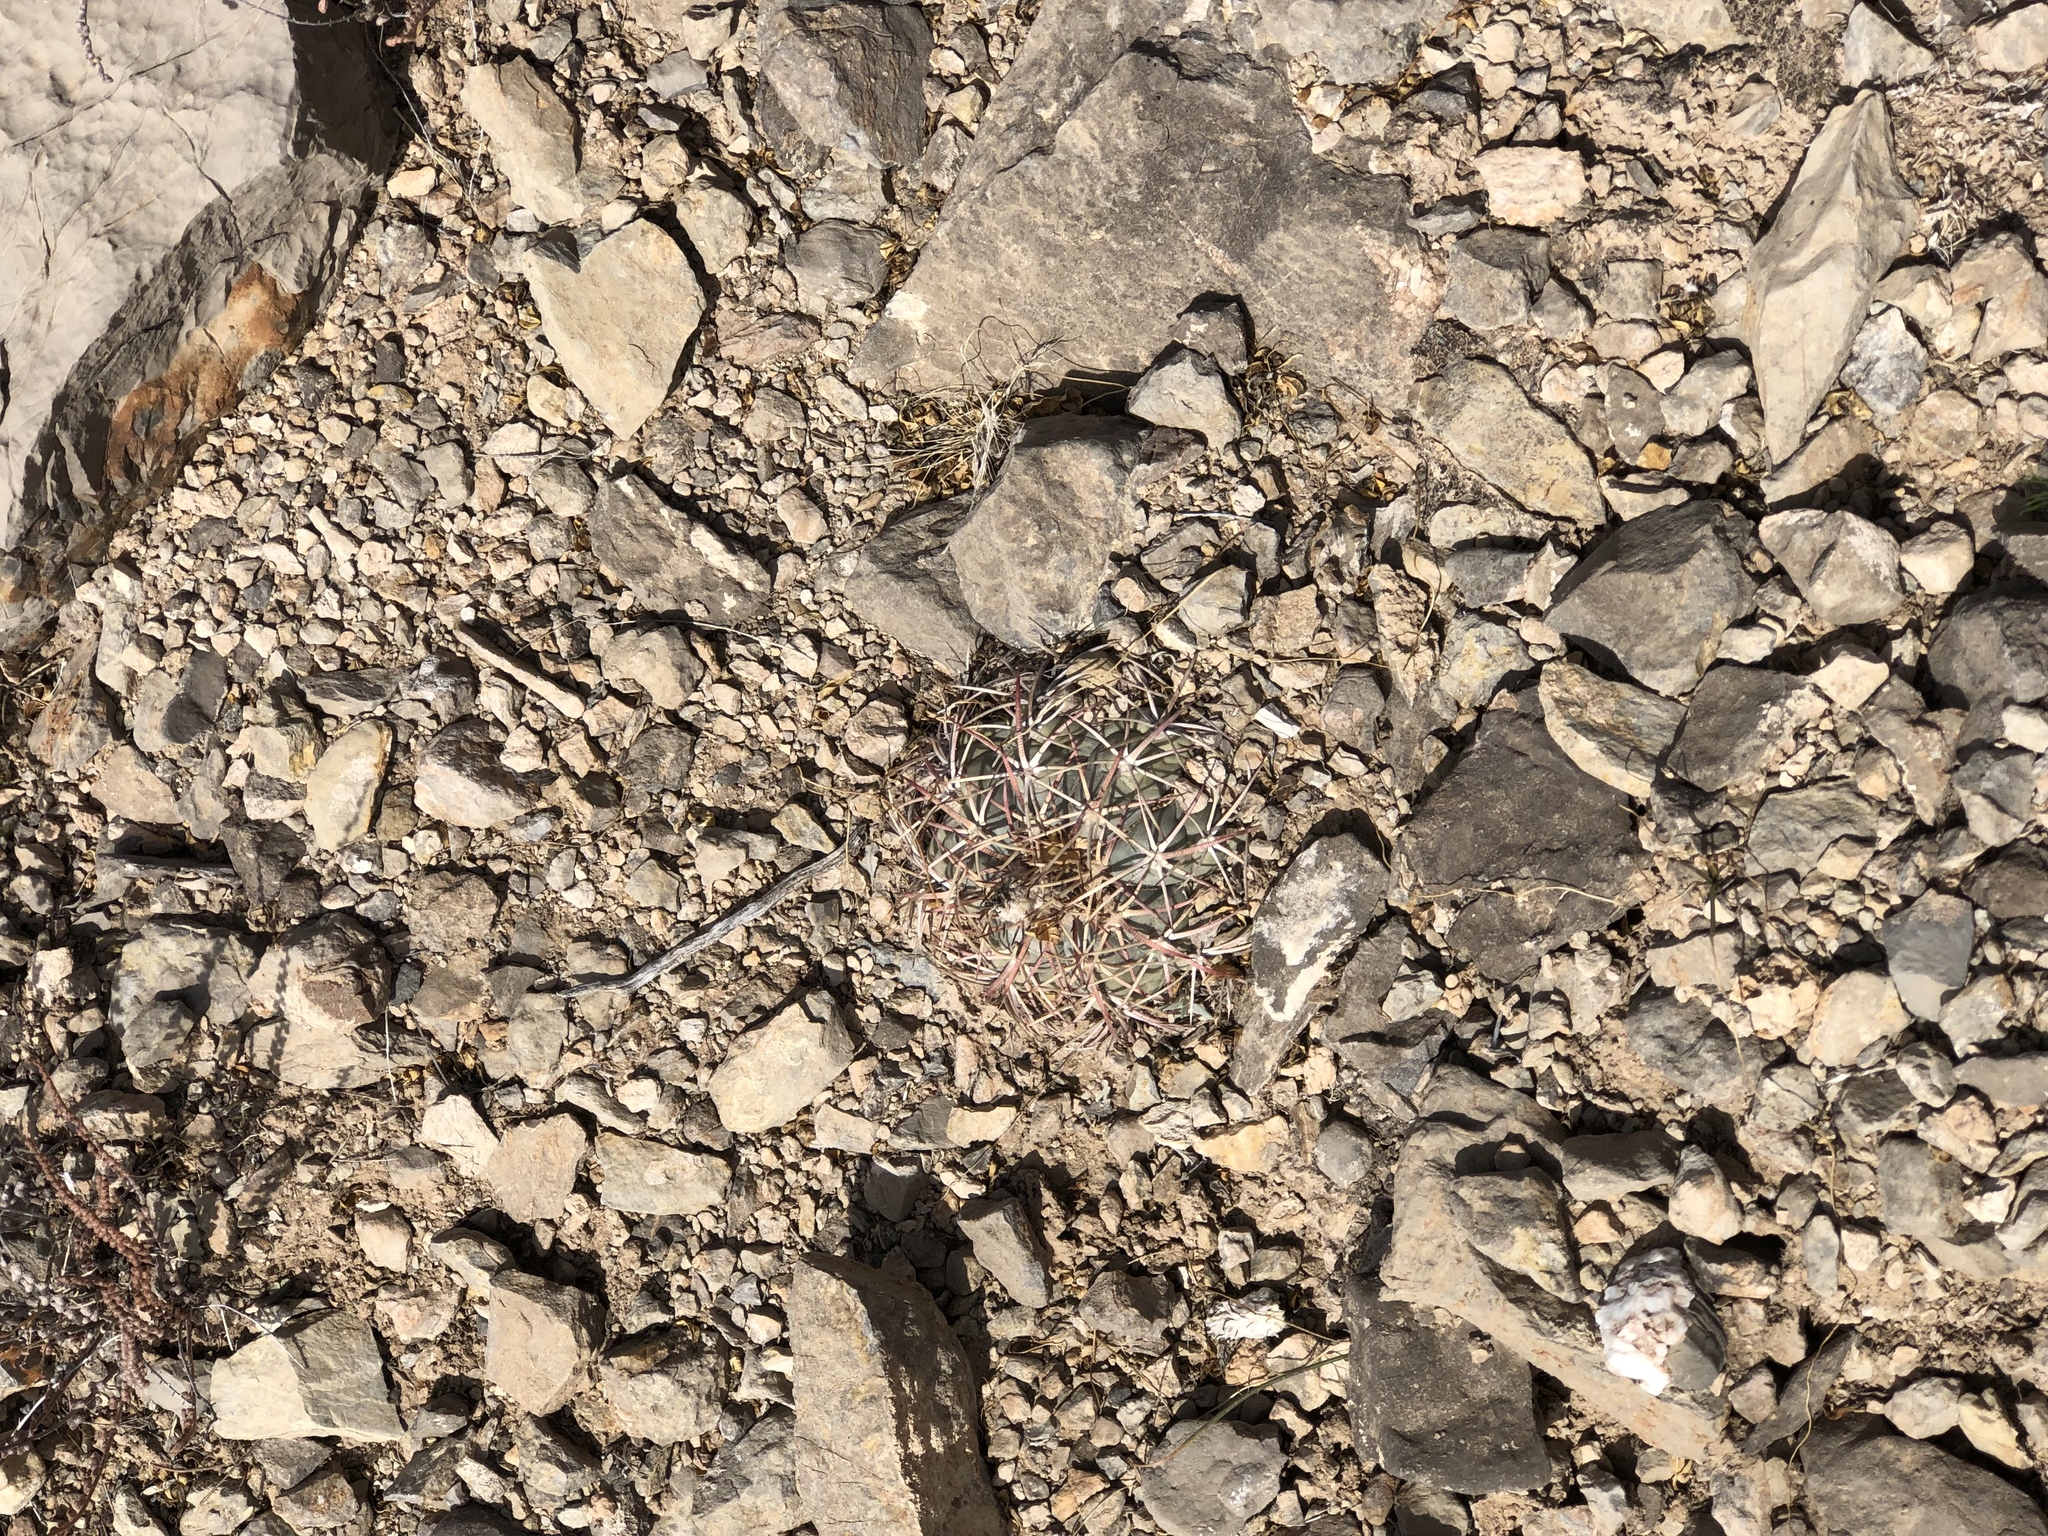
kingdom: Plantae
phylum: Tracheophyta
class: Magnoliopsida
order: Caryophyllales
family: Cactaceae
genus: Echinocactus
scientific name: Echinocactus horizonthalonius
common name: Devilshead
